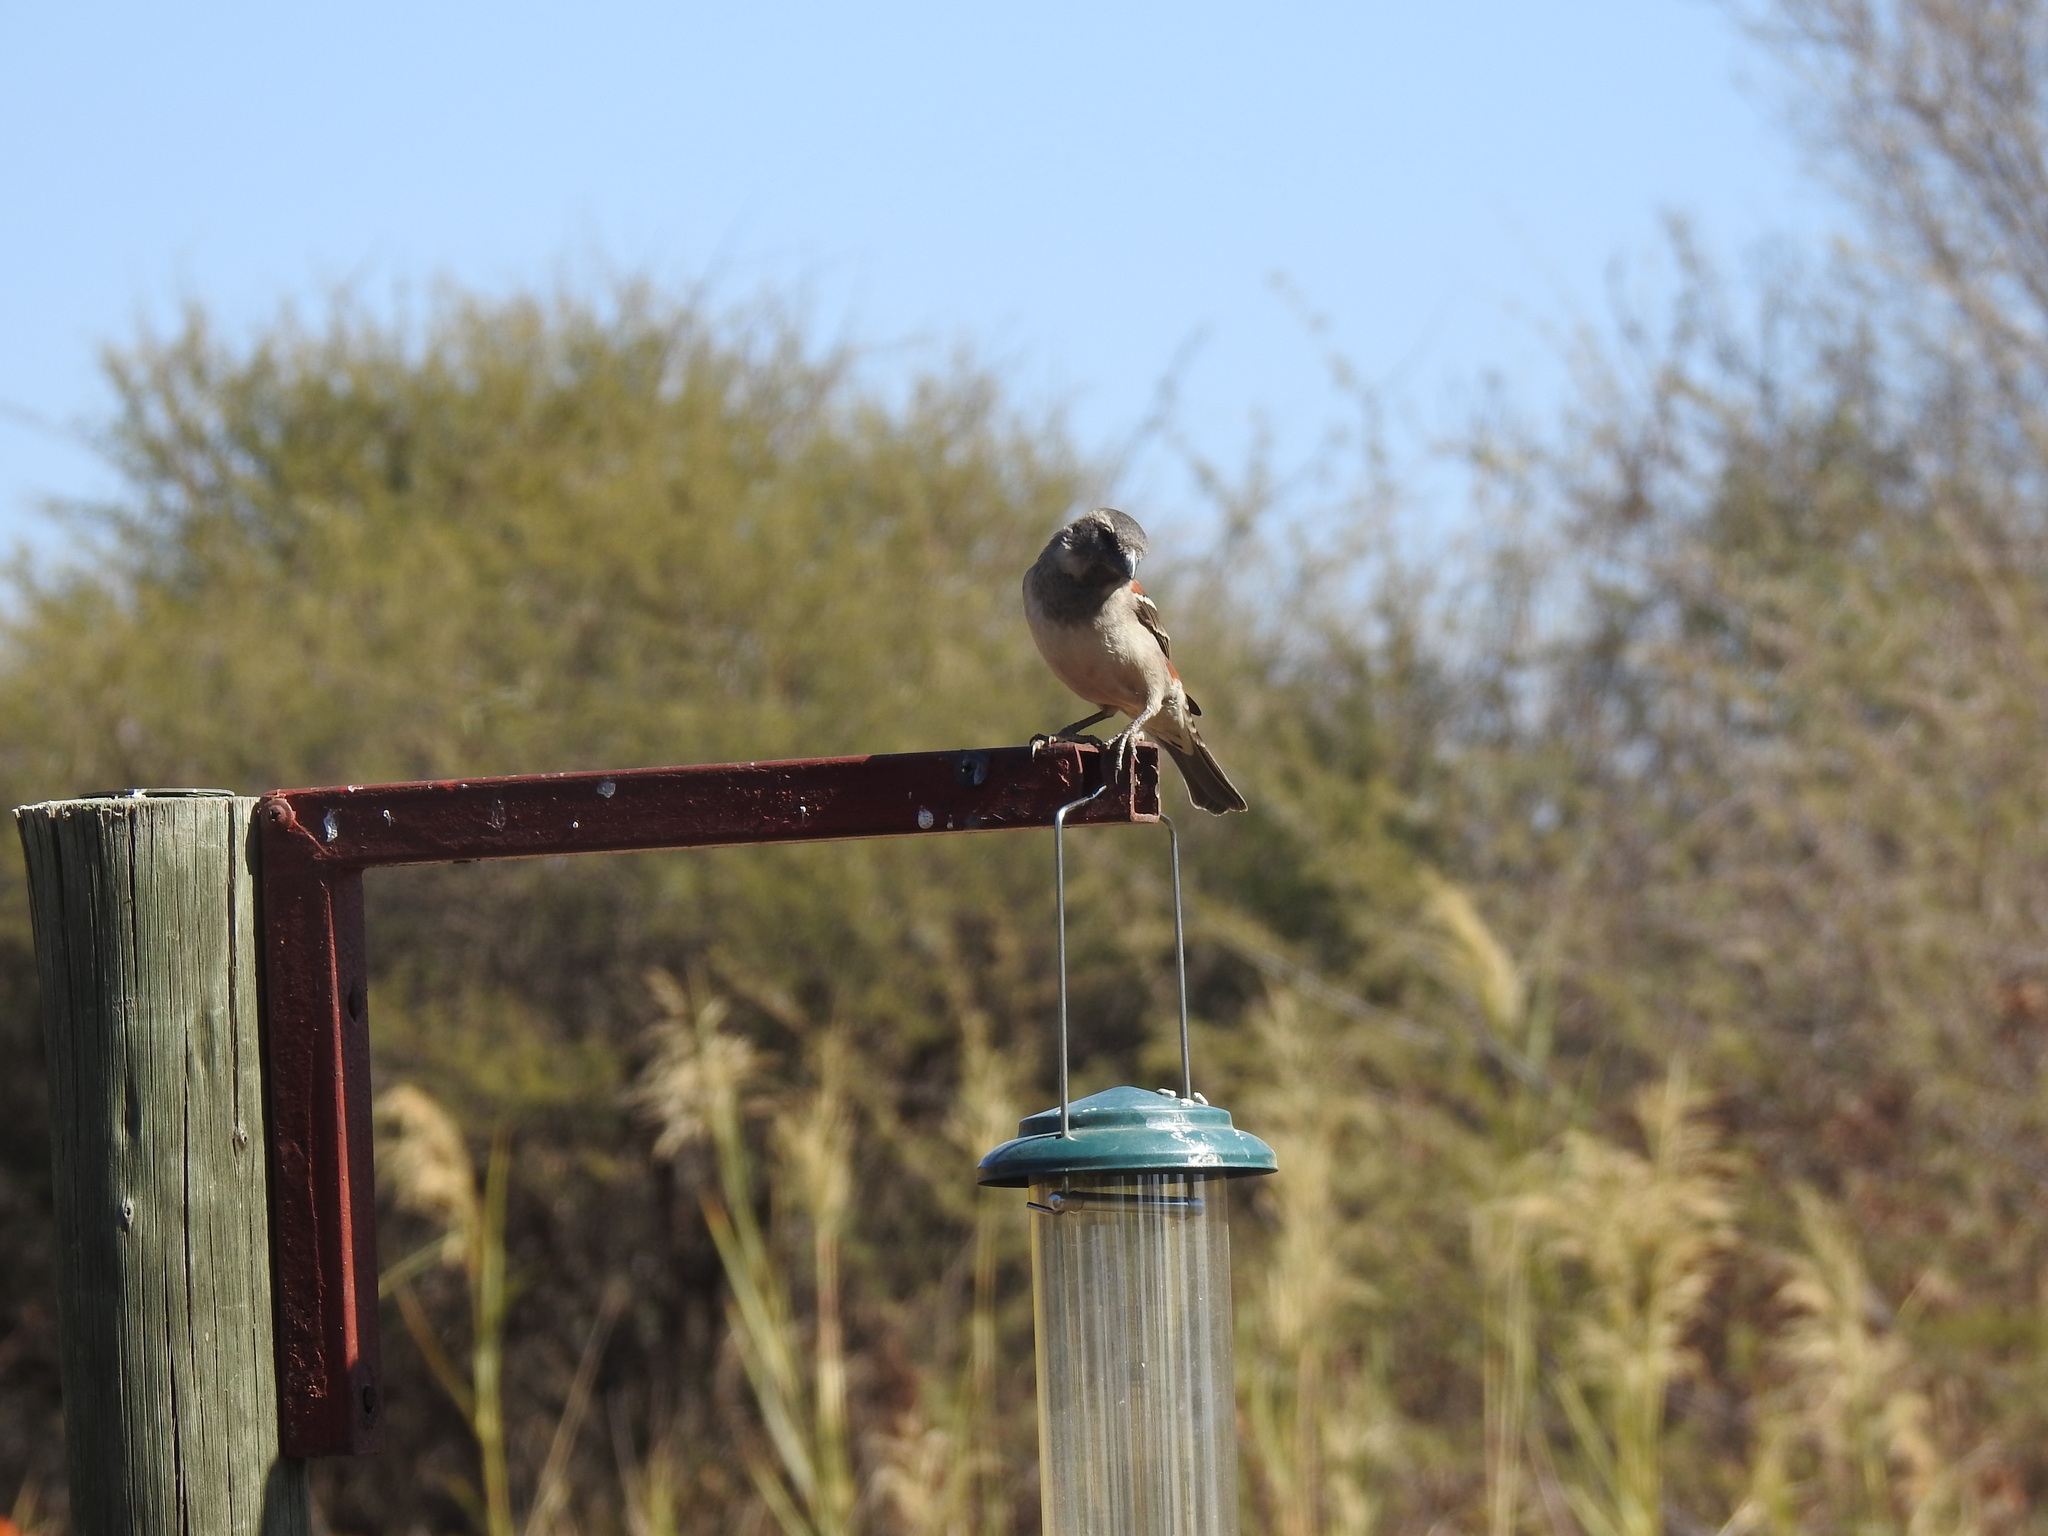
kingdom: Animalia
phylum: Chordata
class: Aves
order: Passeriformes
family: Passeridae
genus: Passer
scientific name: Passer melanurus
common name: Cape sparrow
